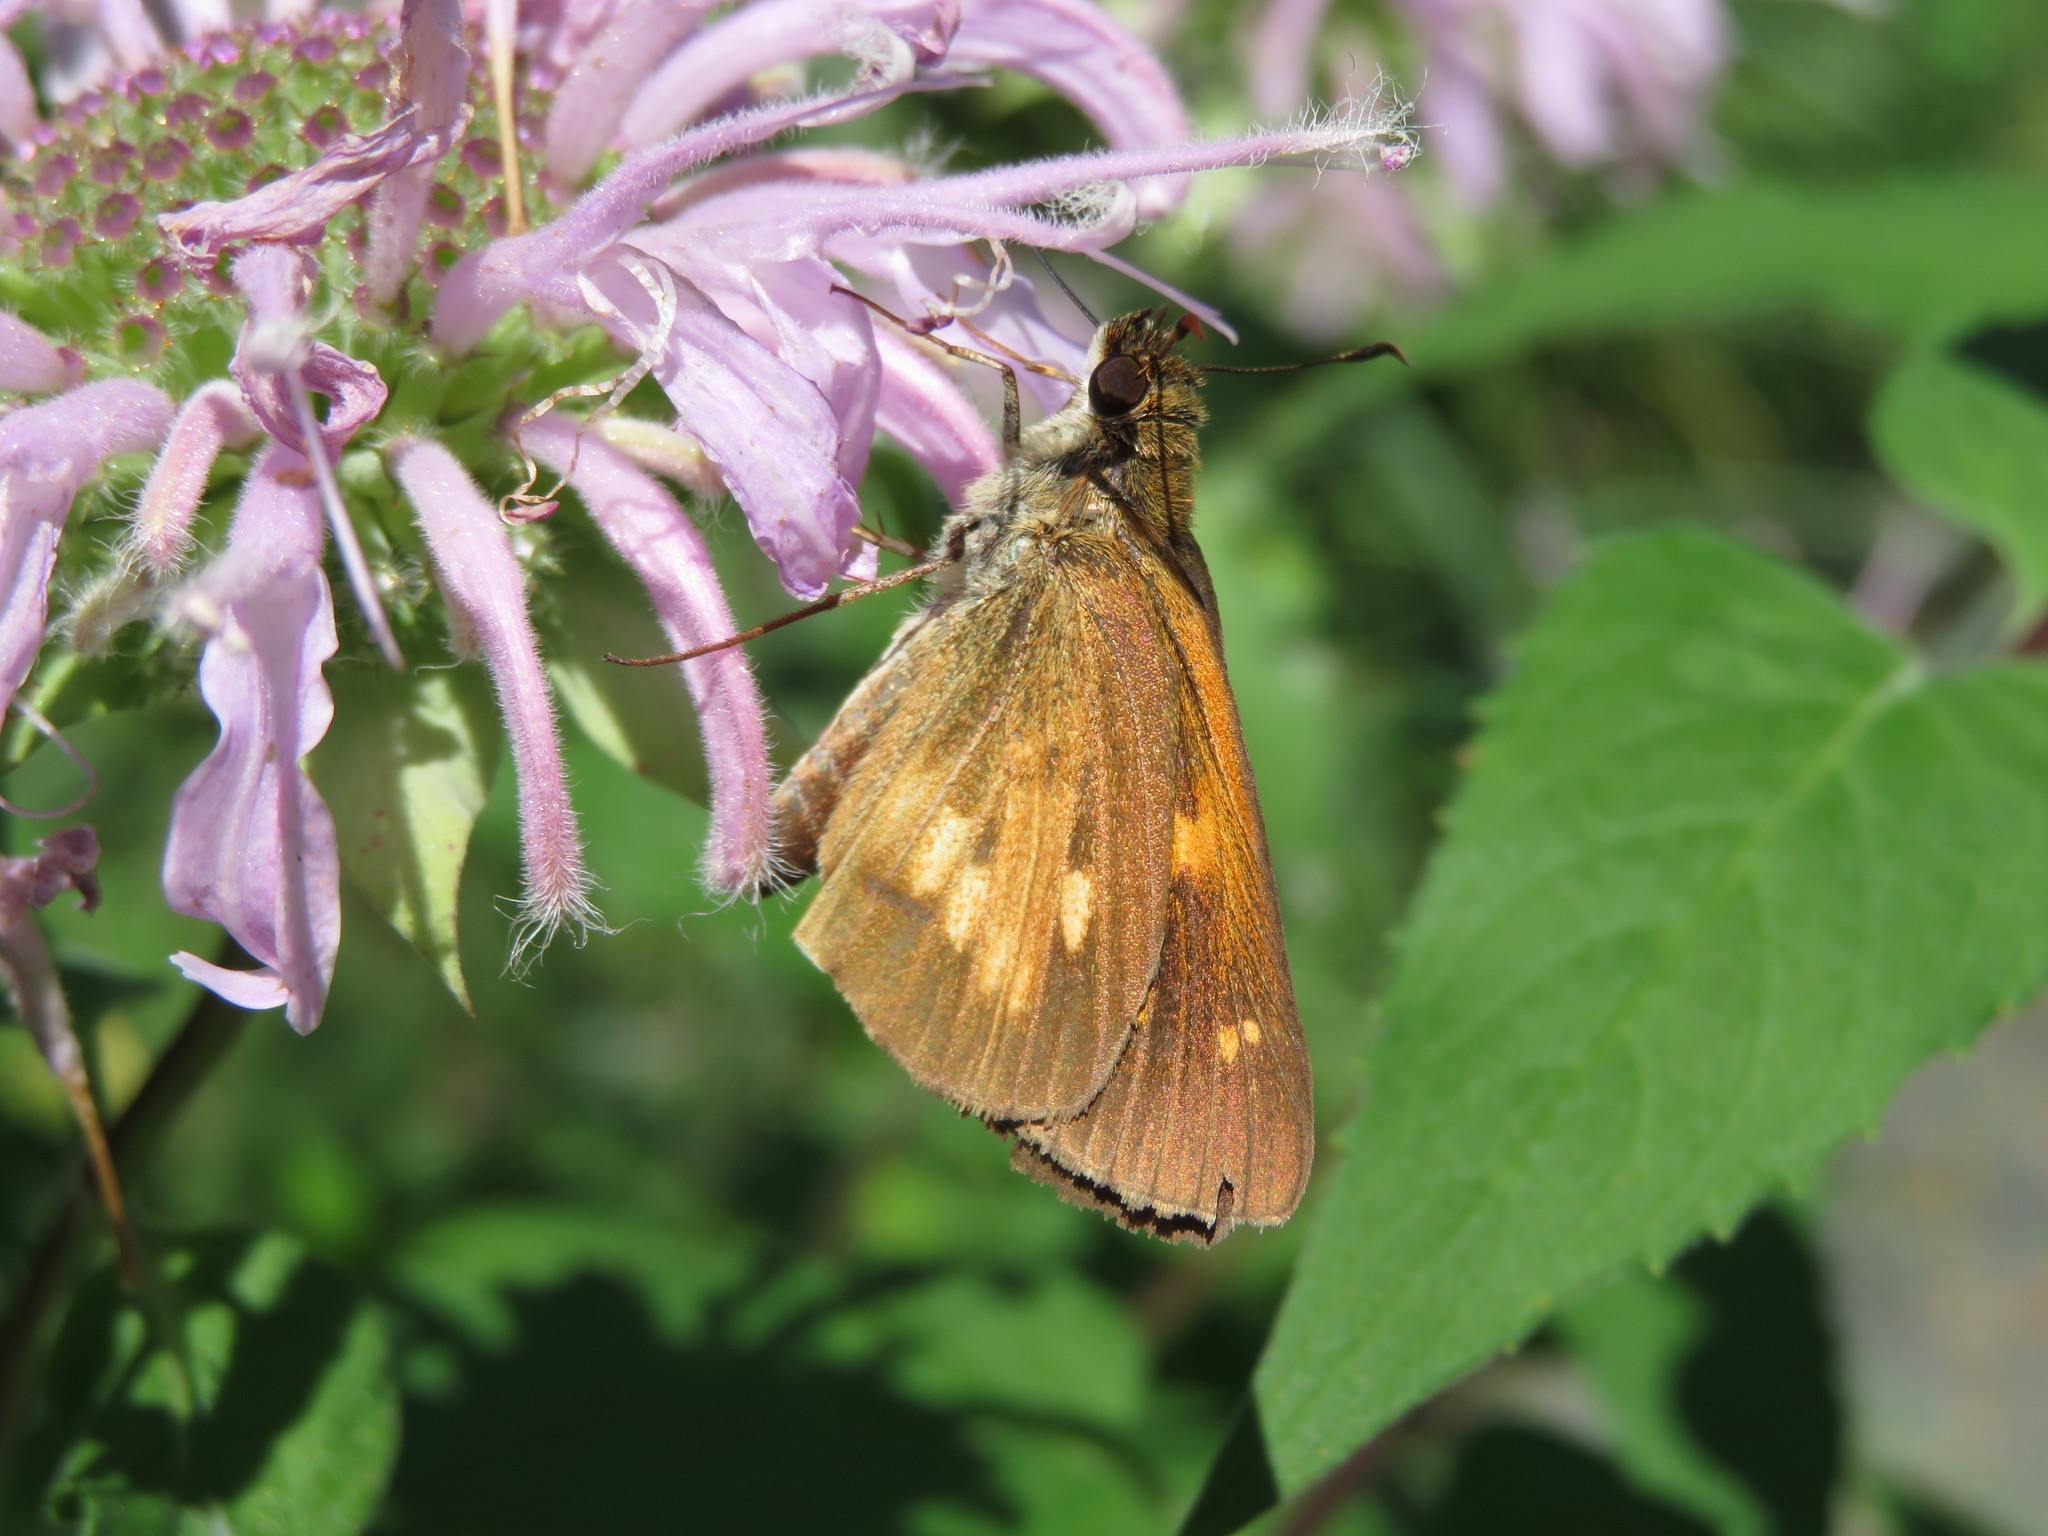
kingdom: Animalia
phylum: Arthropoda
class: Insecta
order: Lepidoptera
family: Hesperiidae
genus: Poanes
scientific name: Poanes viator
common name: Broad-winged skipper
